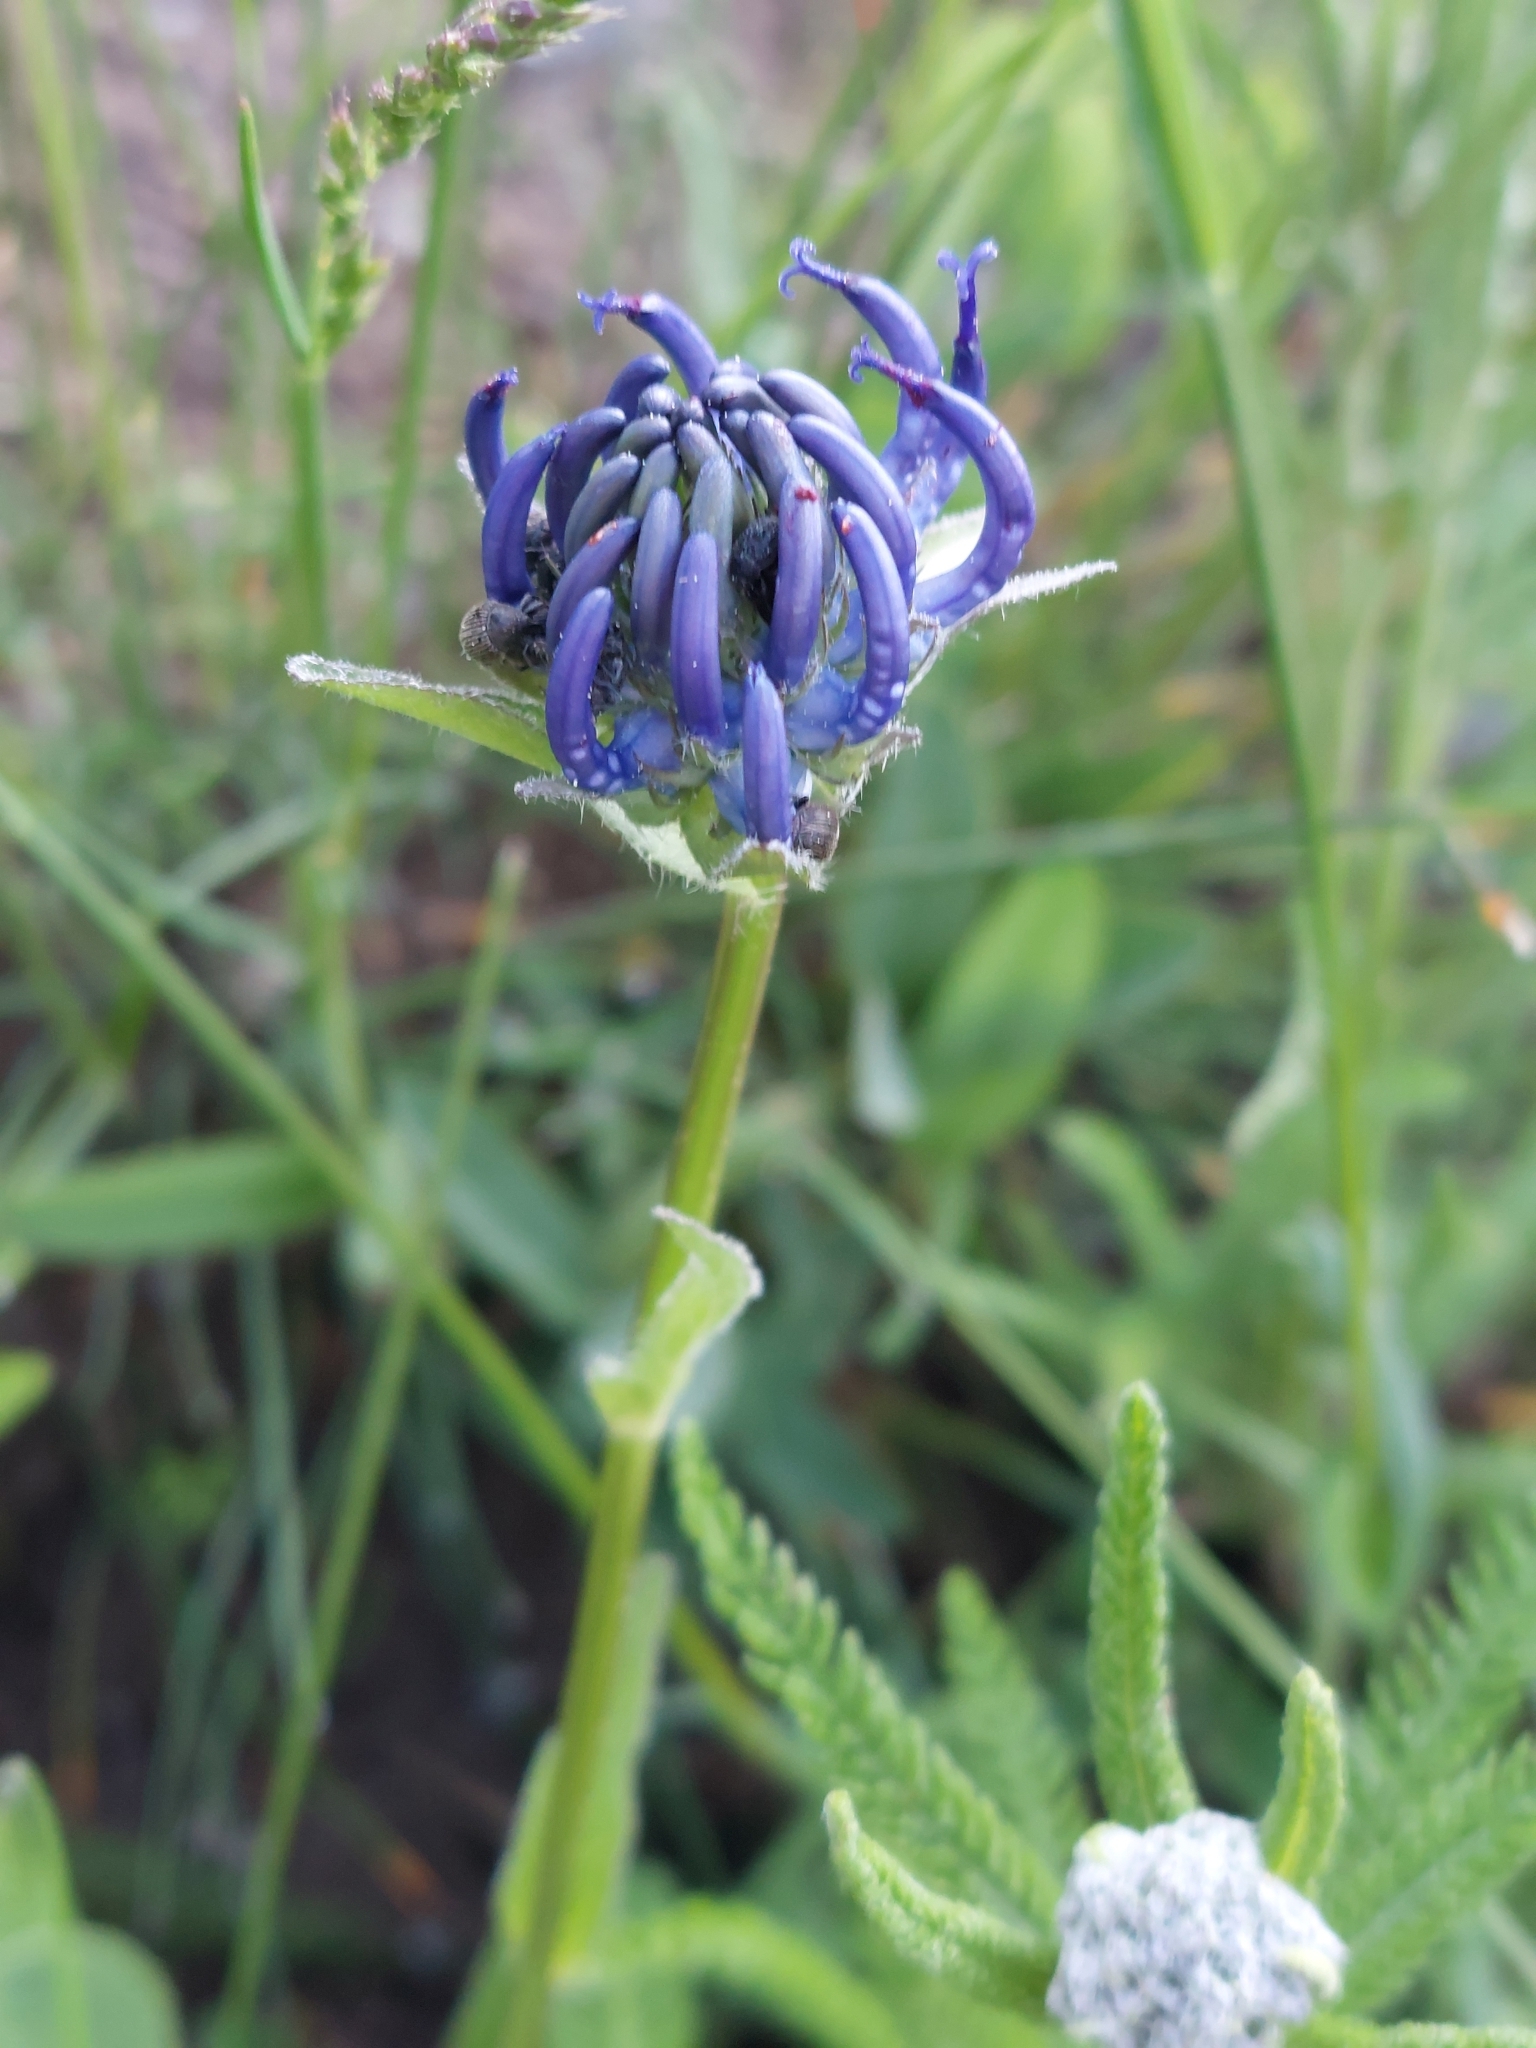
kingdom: Plantae
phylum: Tracheophyta
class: Magnoliopsida
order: Asterales
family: Campanulaceae
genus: Phyteuma
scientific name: Phyteuma orbiculare
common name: Round-headed rampion
